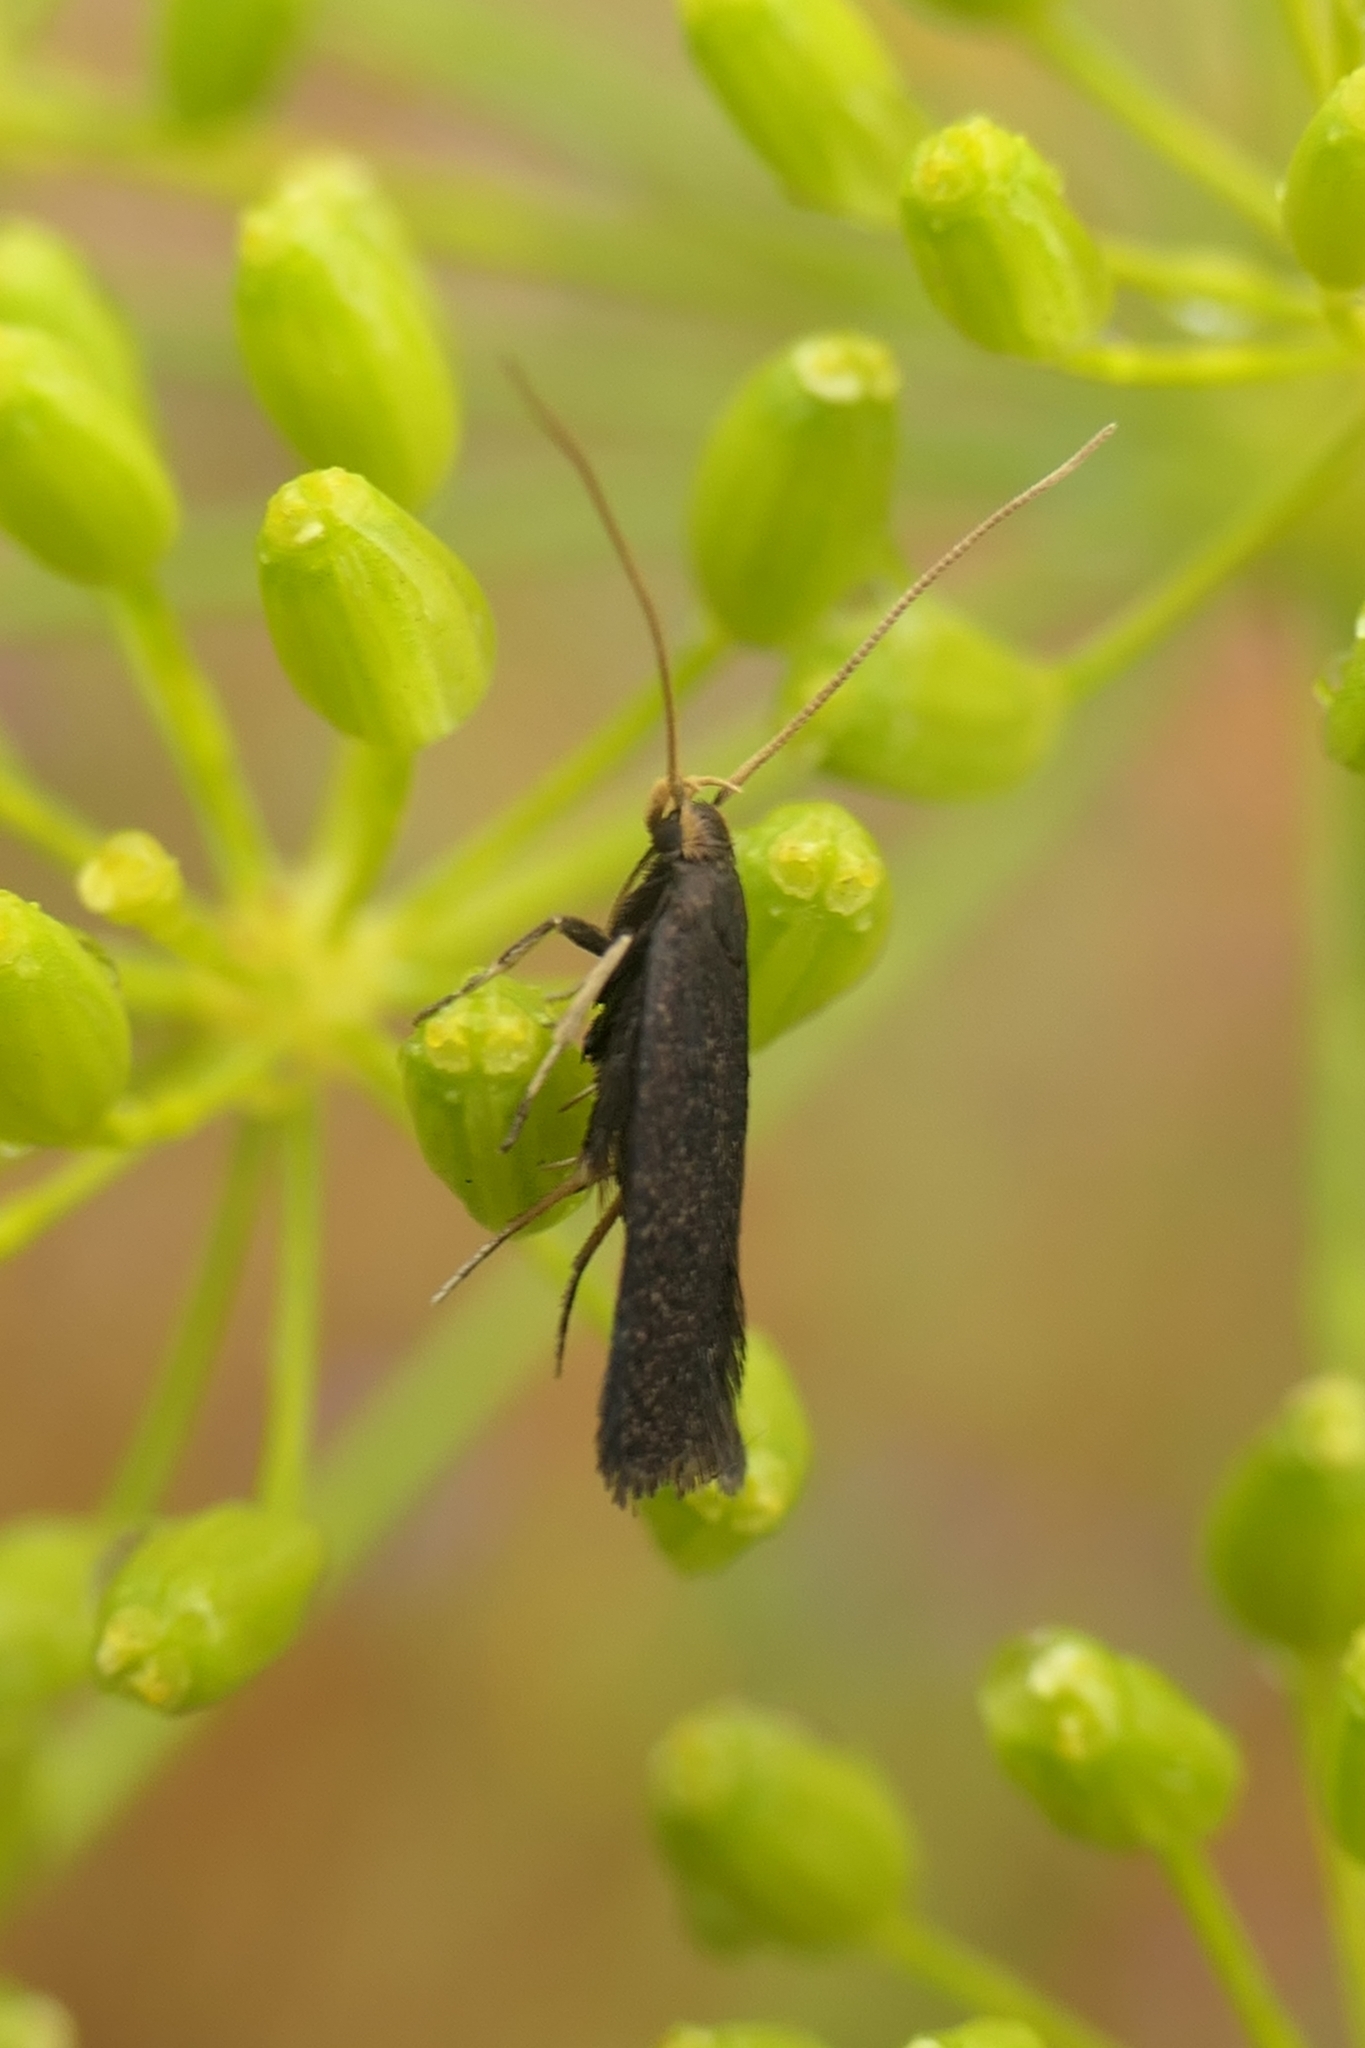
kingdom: Animalia
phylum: Arthropoda
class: Insecta
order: Lepidoptera
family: Lecithoceridae
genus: Lecithocera
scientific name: Lecithocera micromela
